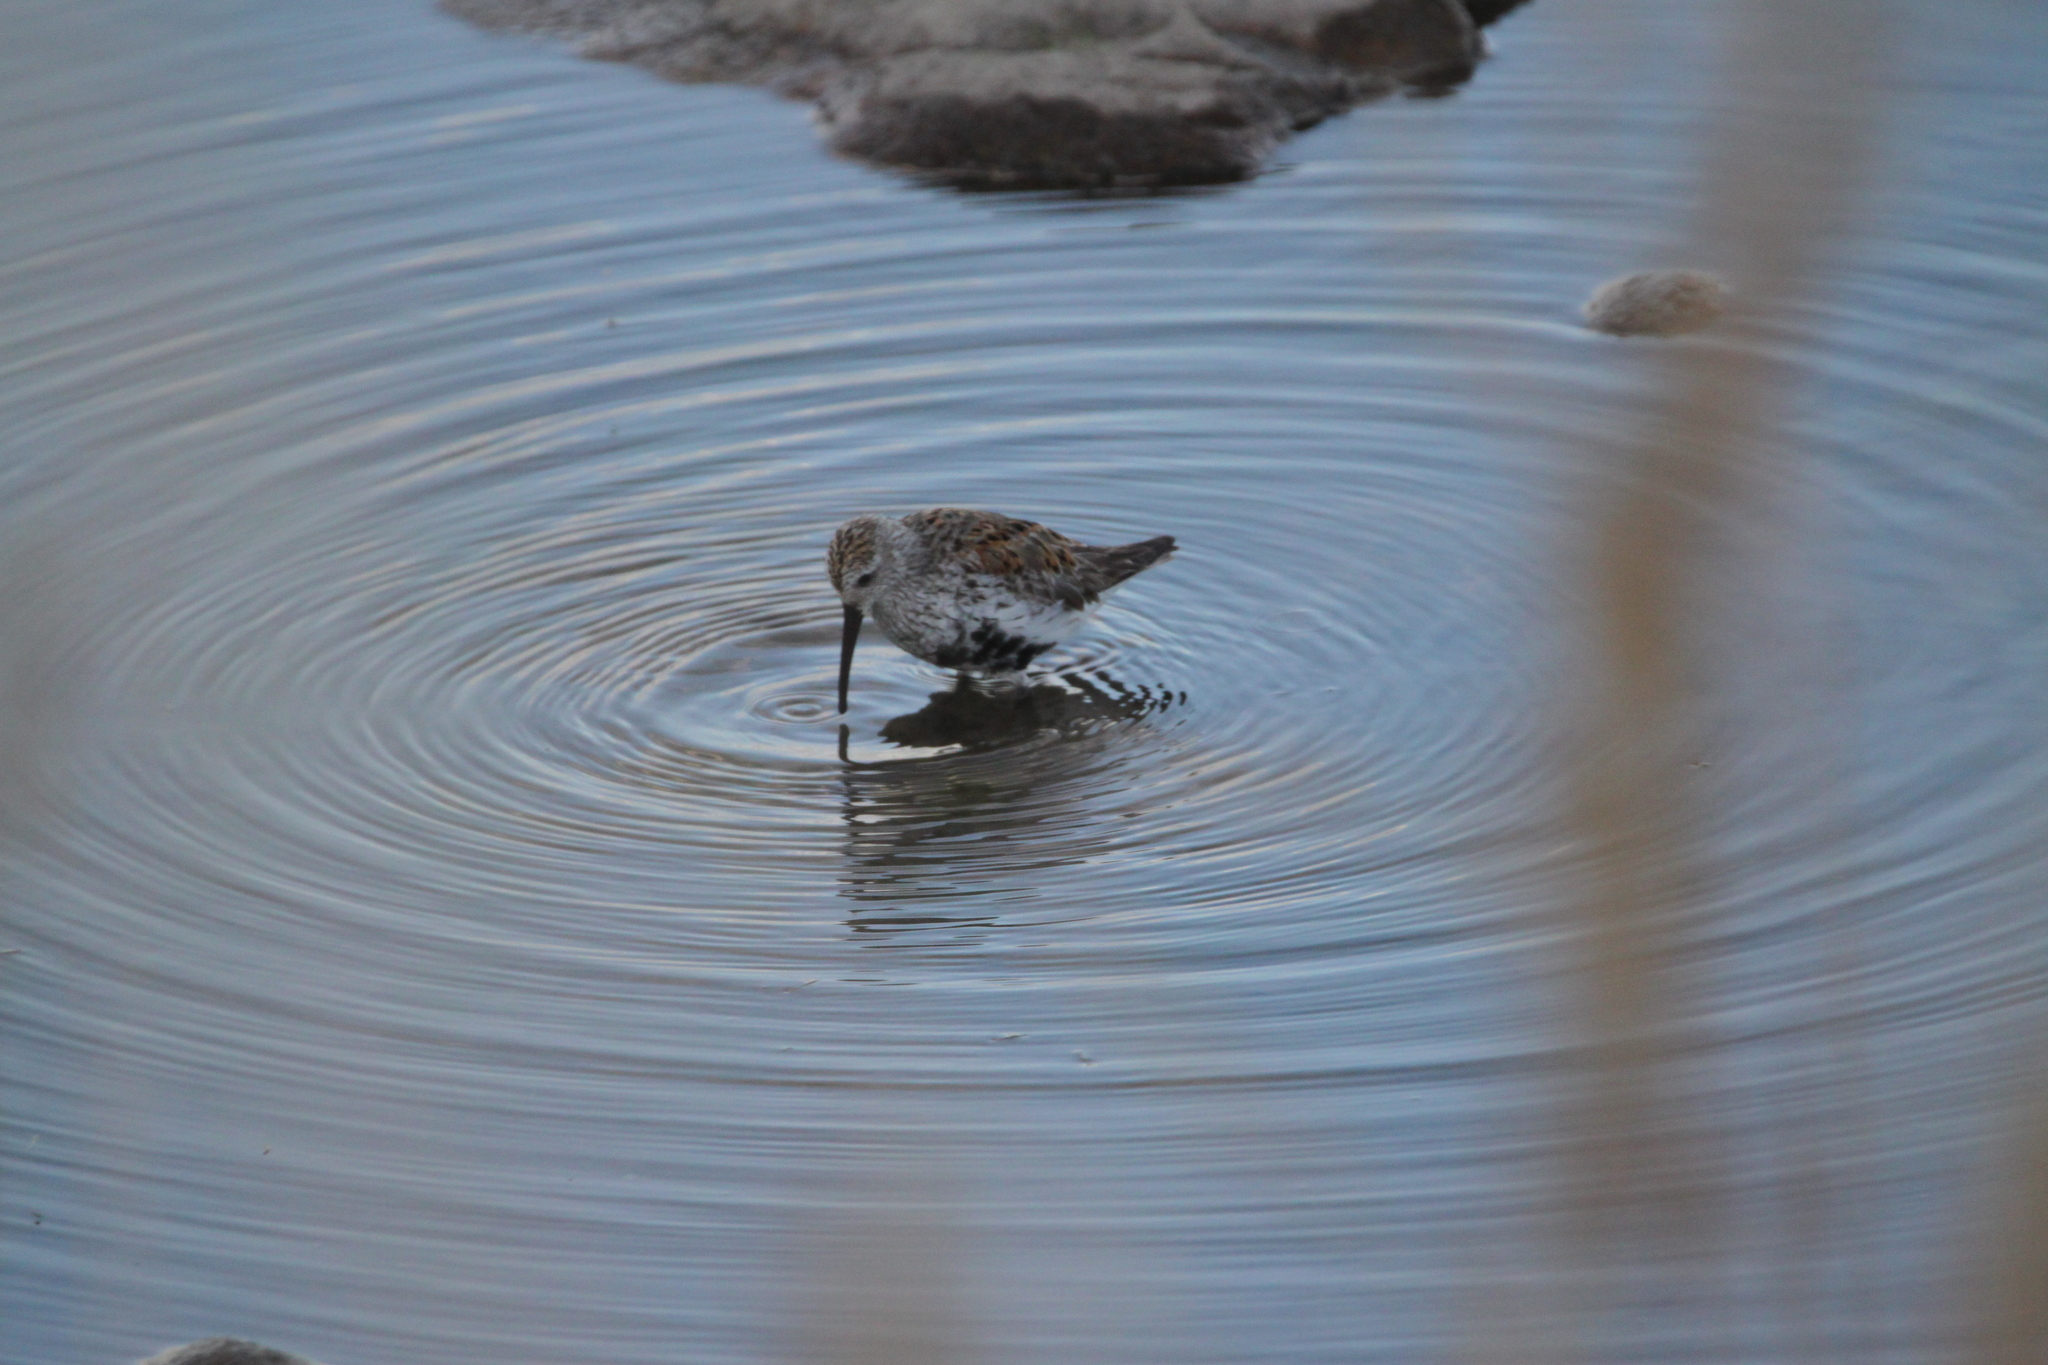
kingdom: Animalia
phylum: Chordata
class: Aves
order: Charadriiformes
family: Scolopacidae
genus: Calidris
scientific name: Calidris alpina
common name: Dunlin
